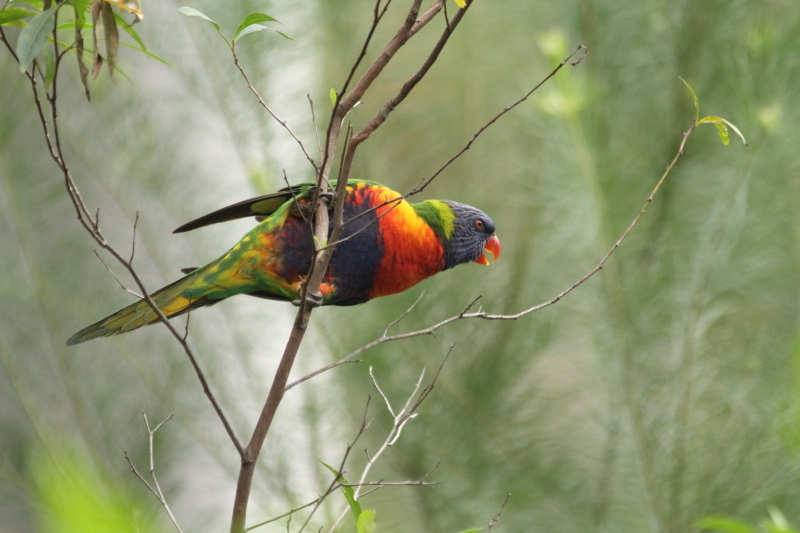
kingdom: Animalia
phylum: Chordata
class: Aves
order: Psittaciformes
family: Psittacidae
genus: Trichoglossus
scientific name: Trichoglossus haematodus
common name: Coconut lorikeet
